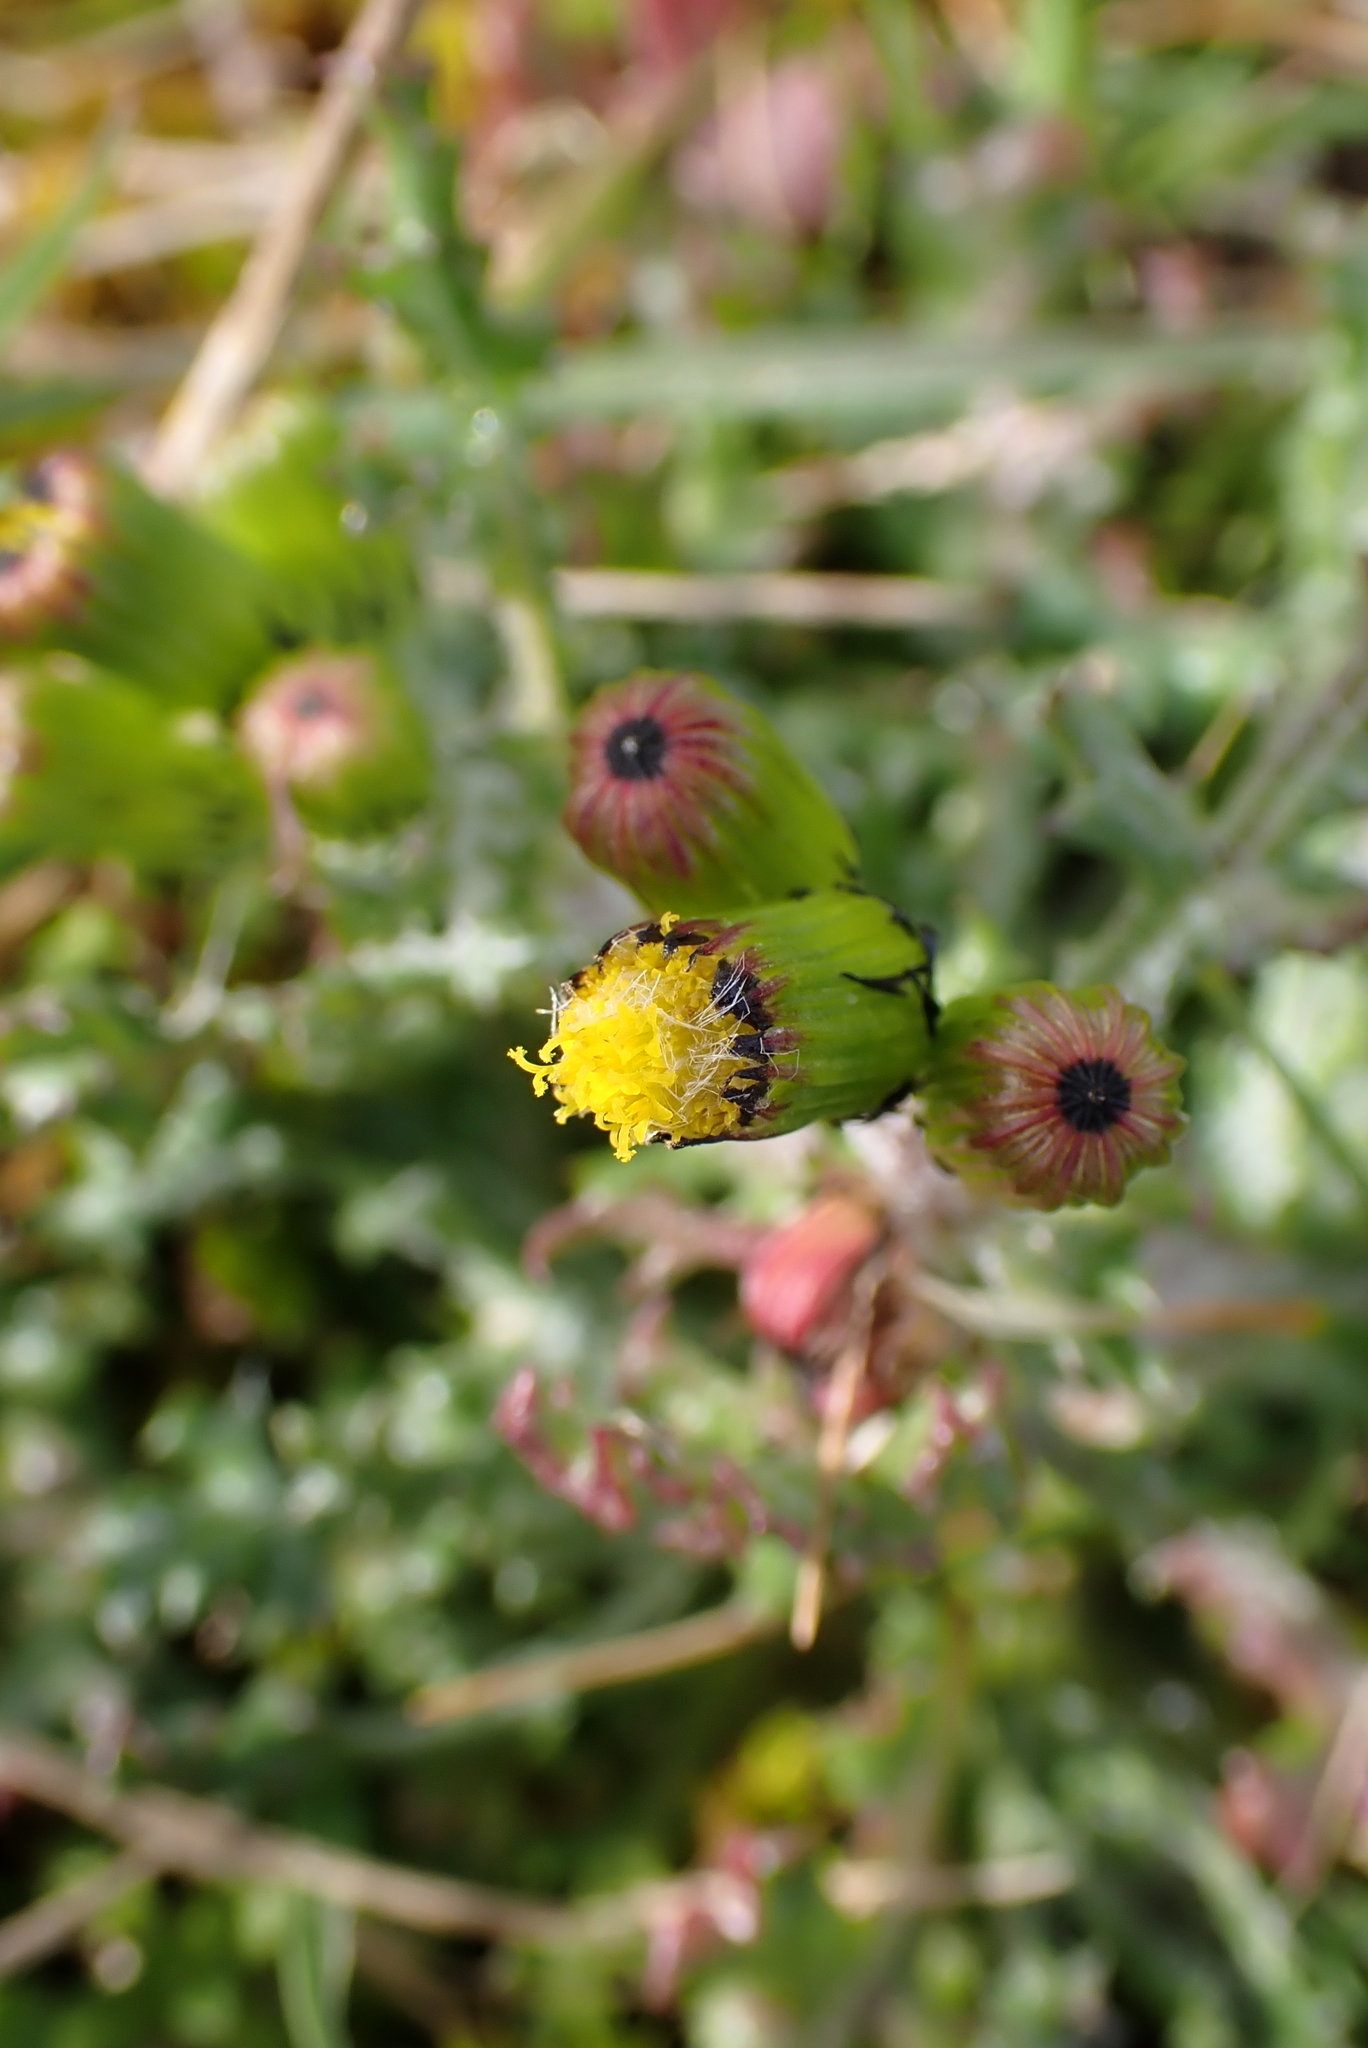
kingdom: Plantae
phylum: Tracheophyta
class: Magnoliopsida
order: Asterales
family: Asteraceae
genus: Senecio
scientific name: Senecio vulgaris
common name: Old-man-in-the-spring
